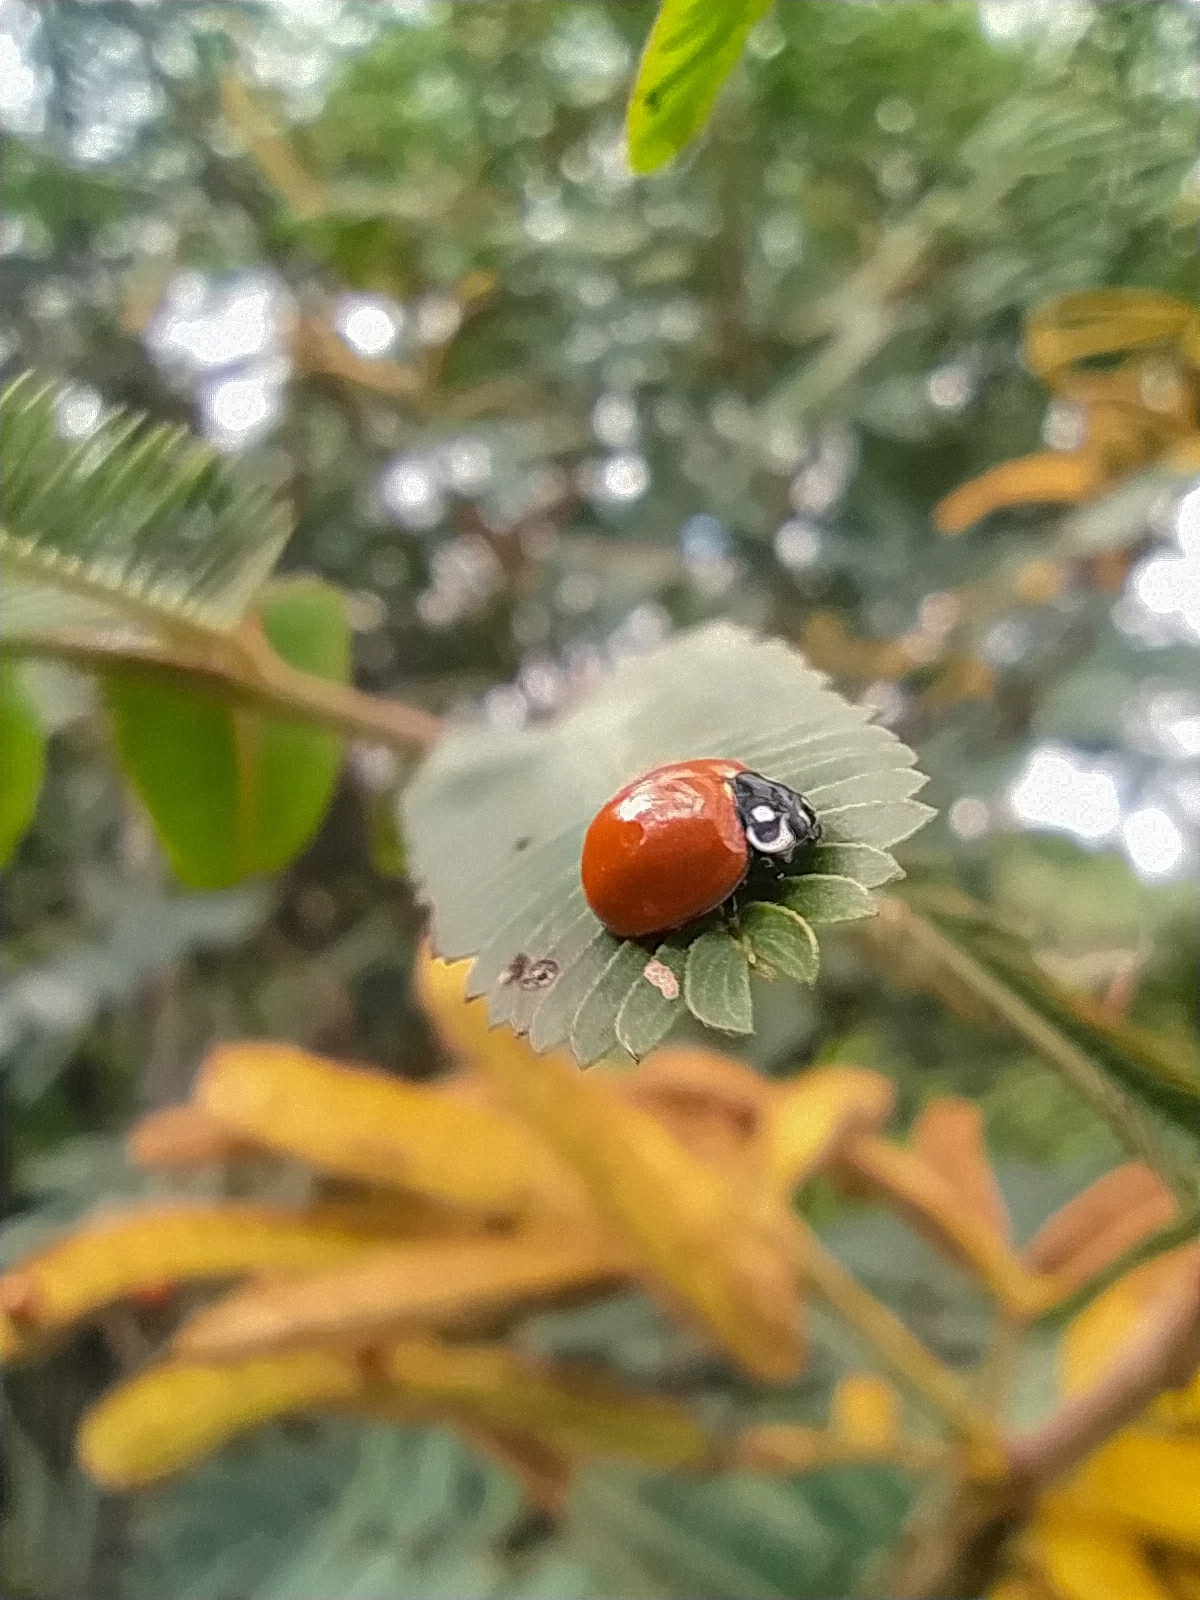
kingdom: Animalia
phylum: Arthropoda
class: Insecta
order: Coleoptera
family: Coccinellidae
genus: Cycloneda
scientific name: Cycloneda sanguinea
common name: Ladybird beetle
